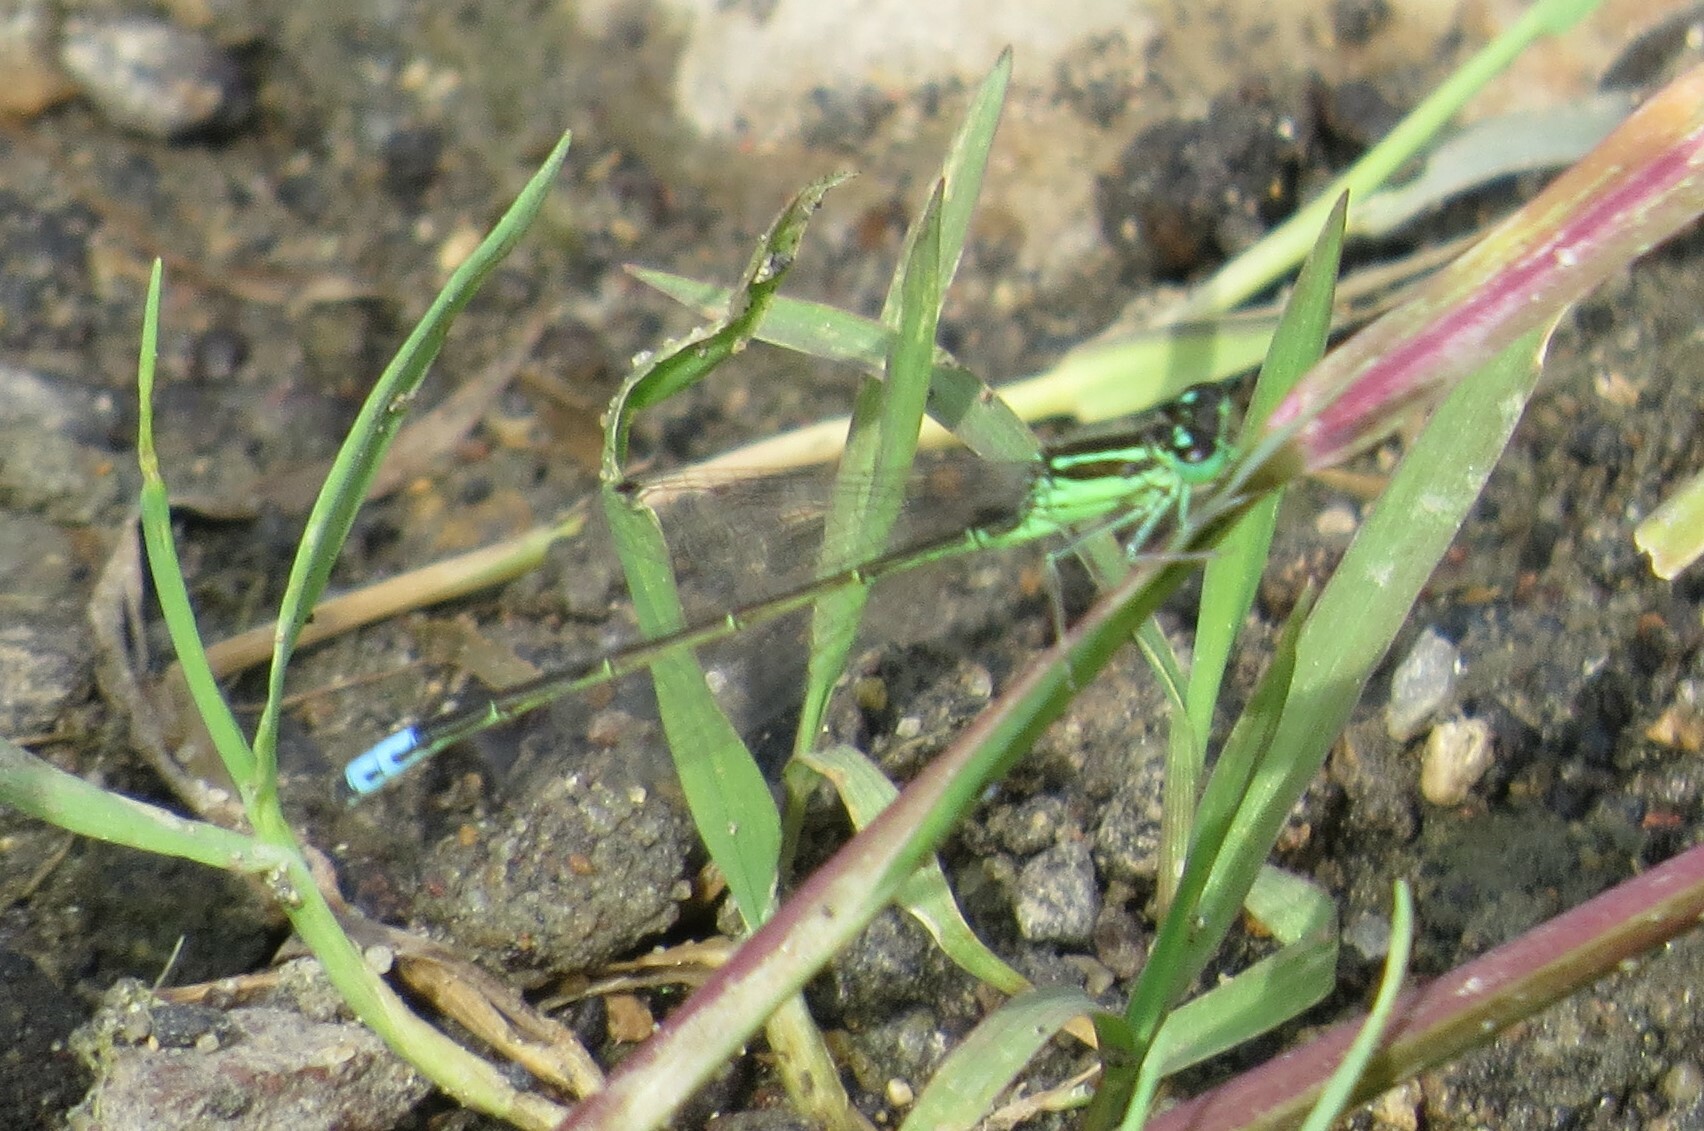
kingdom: Animalia
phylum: Arthropoda
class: Insecta
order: Odonata
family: Coenagrionidae
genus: Ischnura
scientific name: Ischnura verticalis
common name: Eastern forktail
